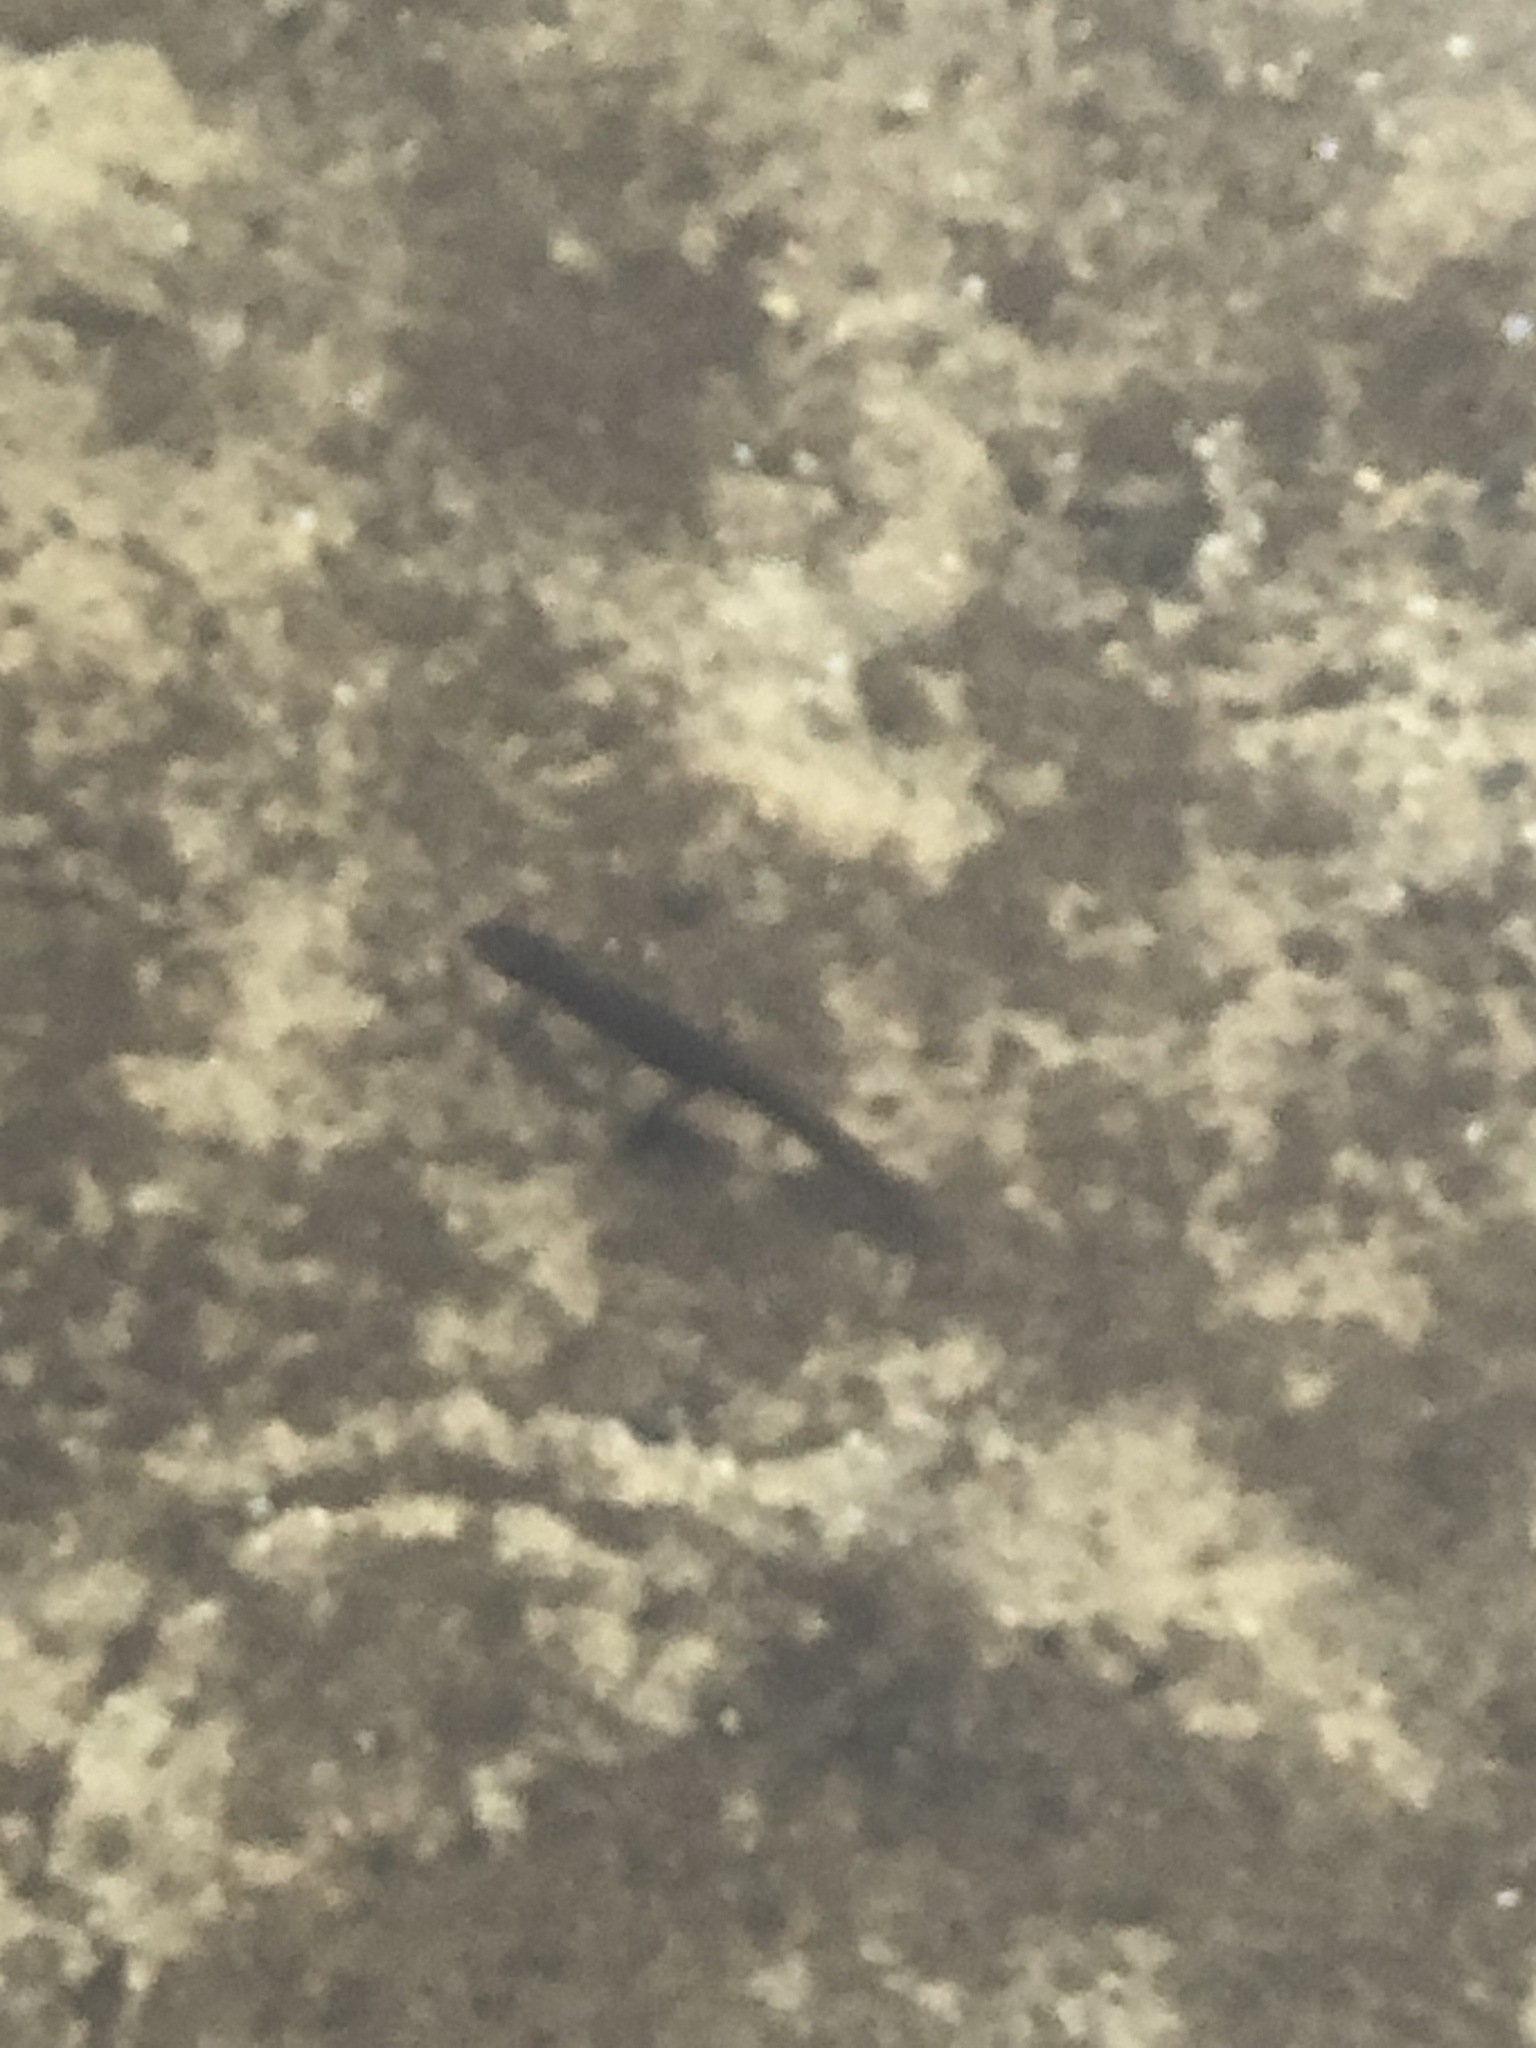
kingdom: Animalia
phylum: Chordata
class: Amphibia
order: Caudata
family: Salamandridae
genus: Notophthalmus
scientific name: Notophthalmus viridescens
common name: Eastern newt
